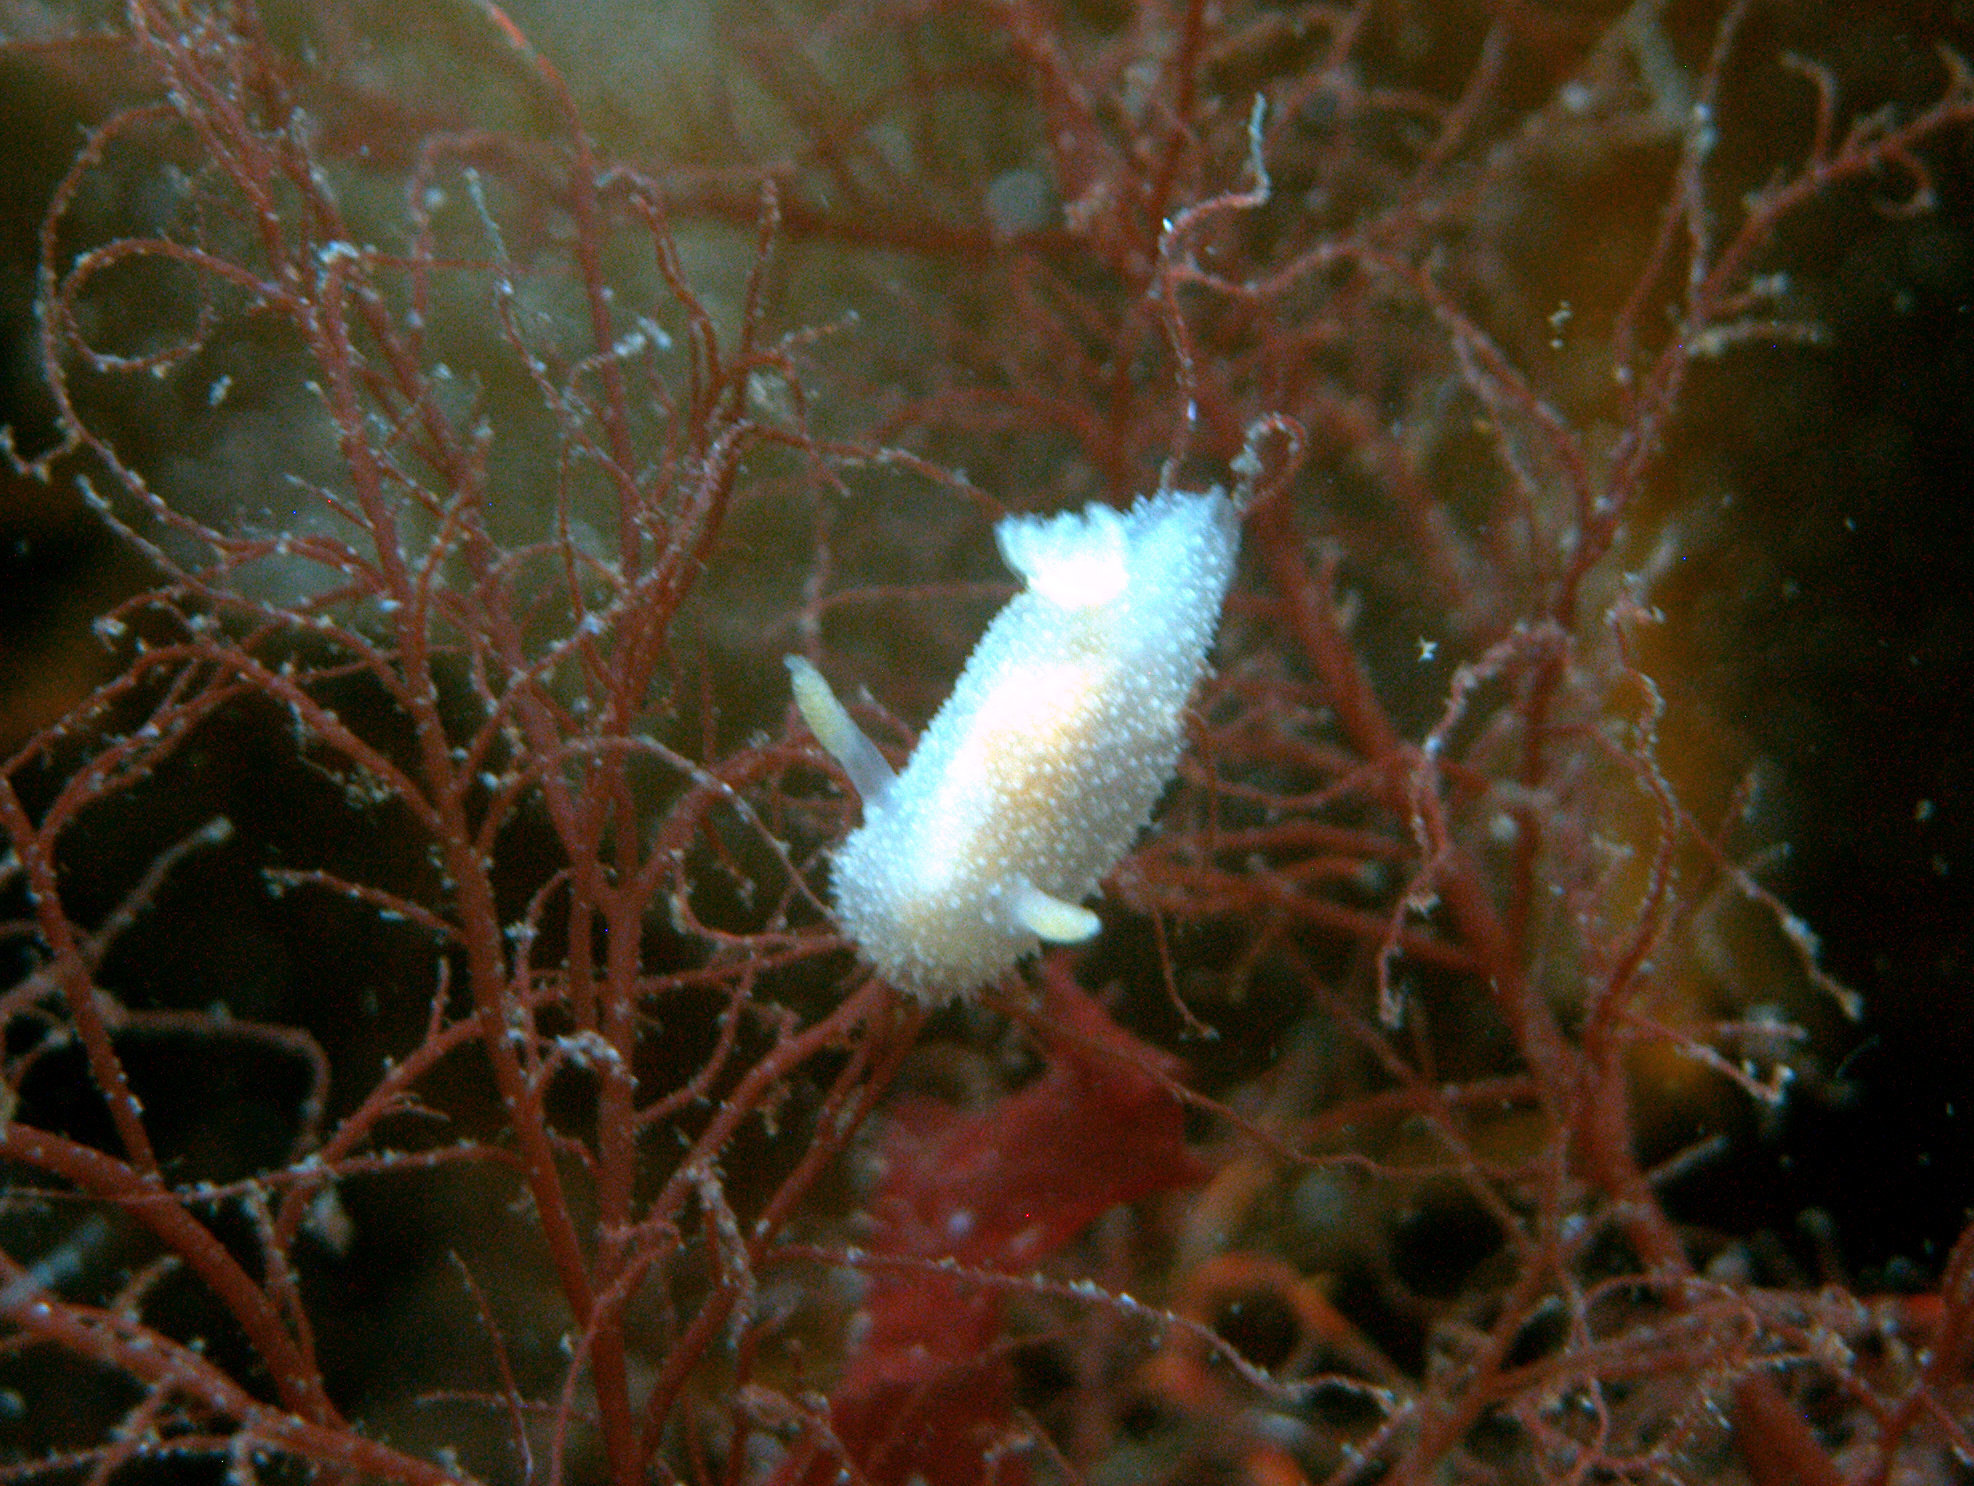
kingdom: Animalia
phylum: Mollusca
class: Gastropoda
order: Nudibranchia
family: Onchidorididae
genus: Acanthodoris
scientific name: Acanthodoris pilosa
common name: Hairy spiny doris
